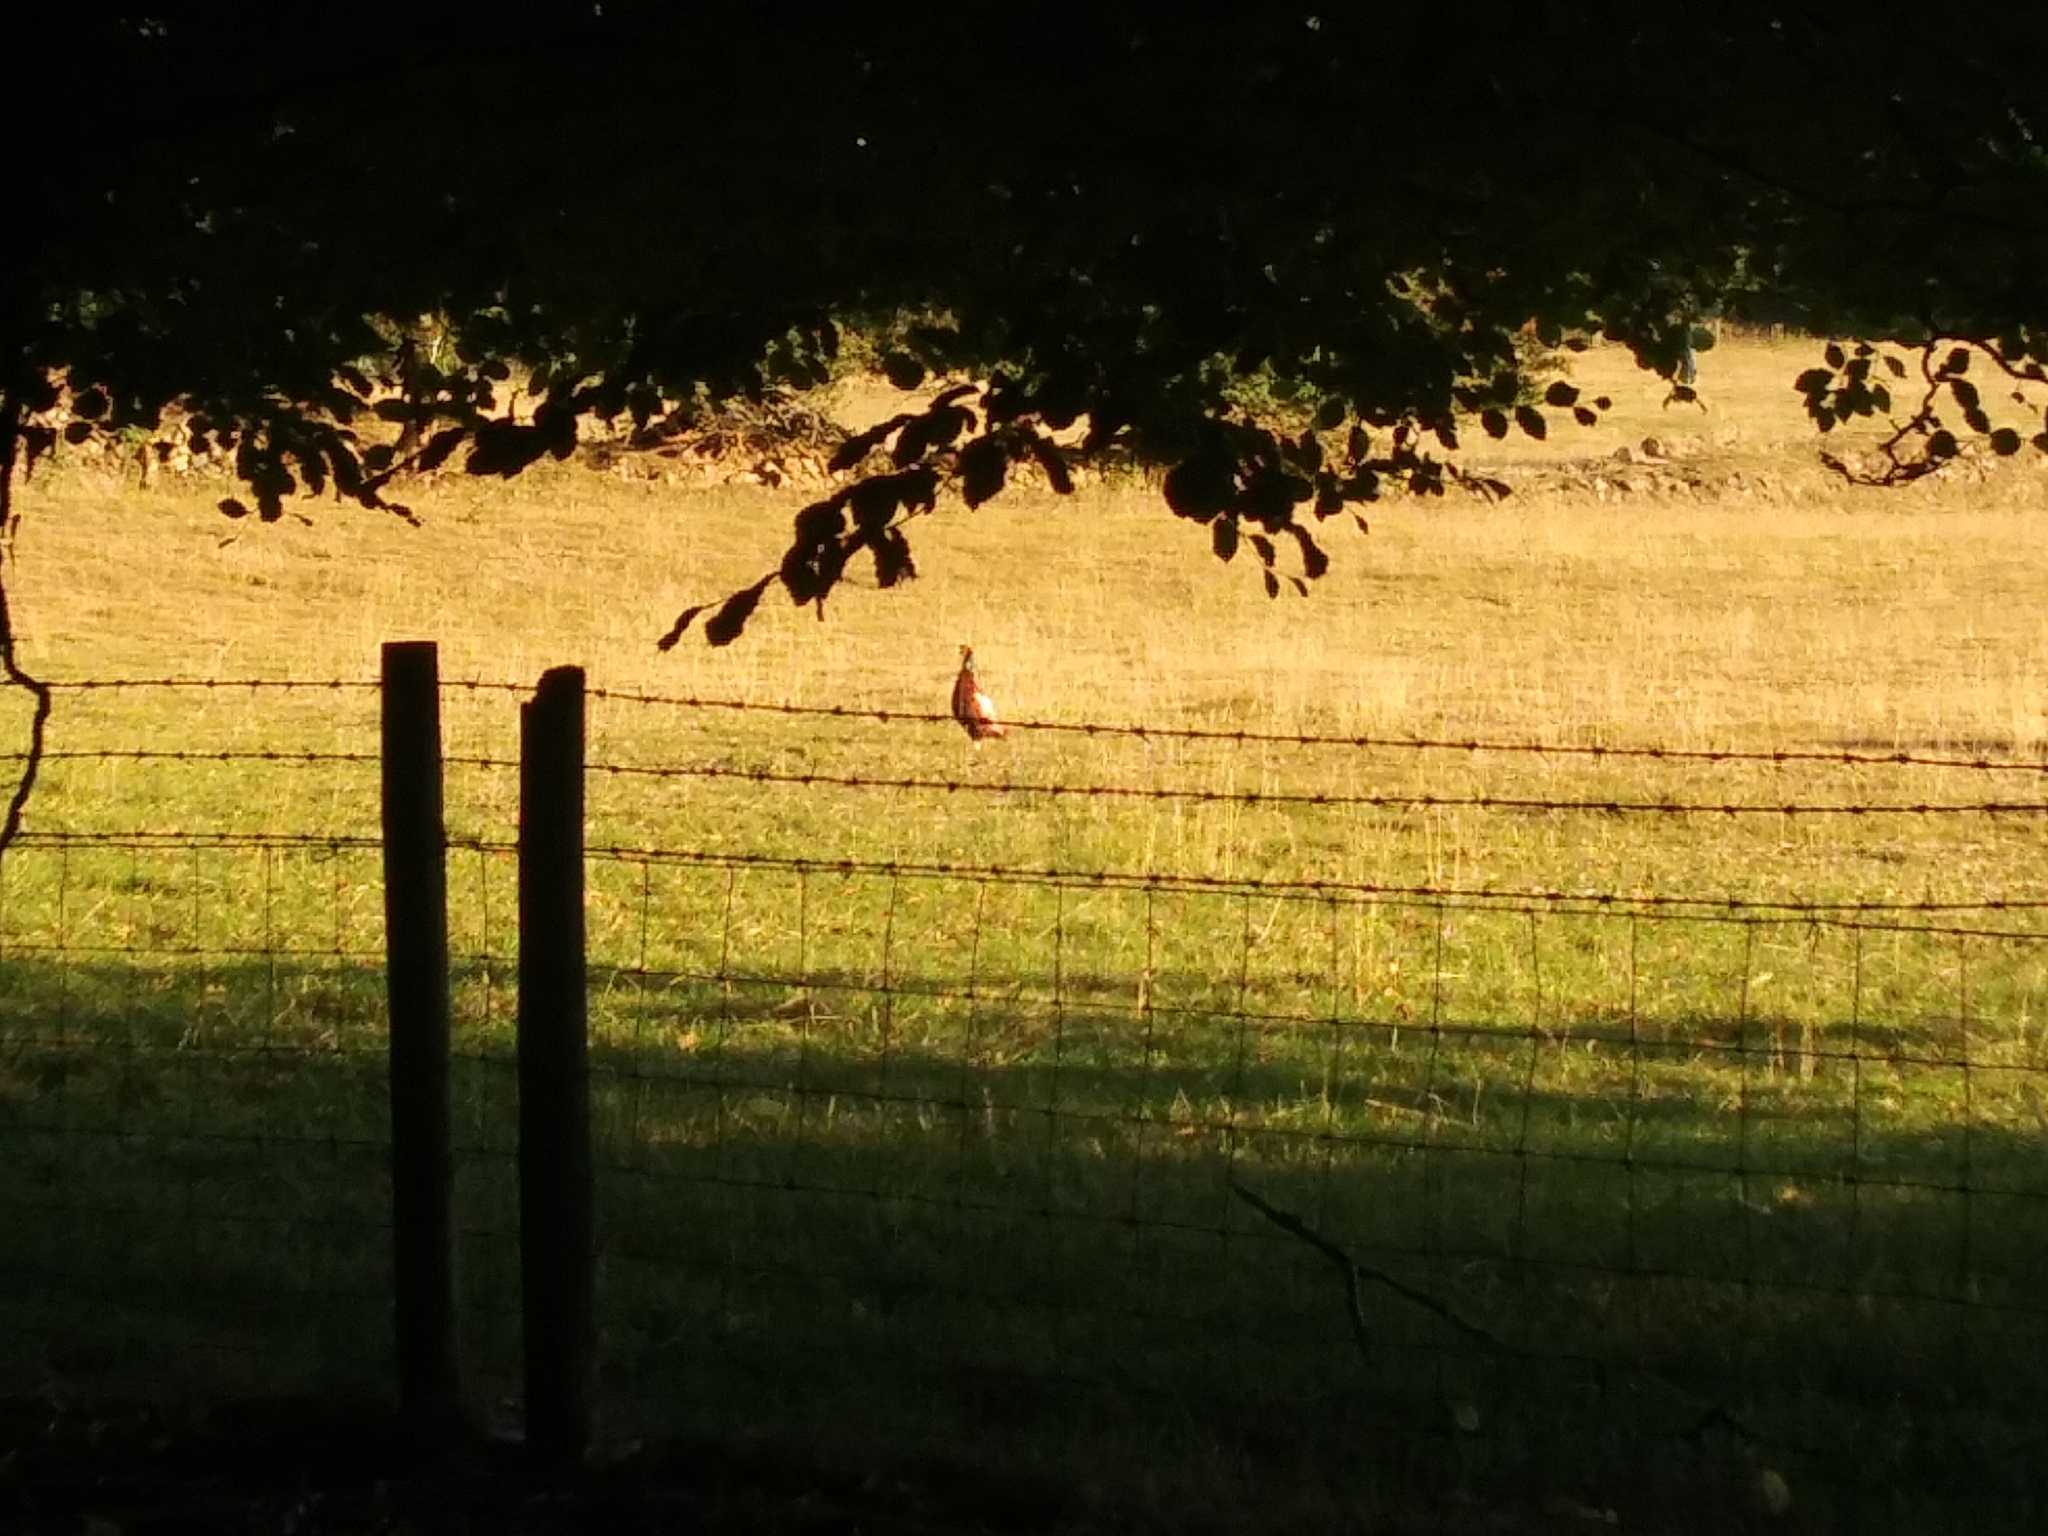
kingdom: Animalia
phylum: Chordata
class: Aves
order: Galliformes
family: Phasianidae
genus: Phasianus
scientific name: Phasianus colchicus
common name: Common pheasant
